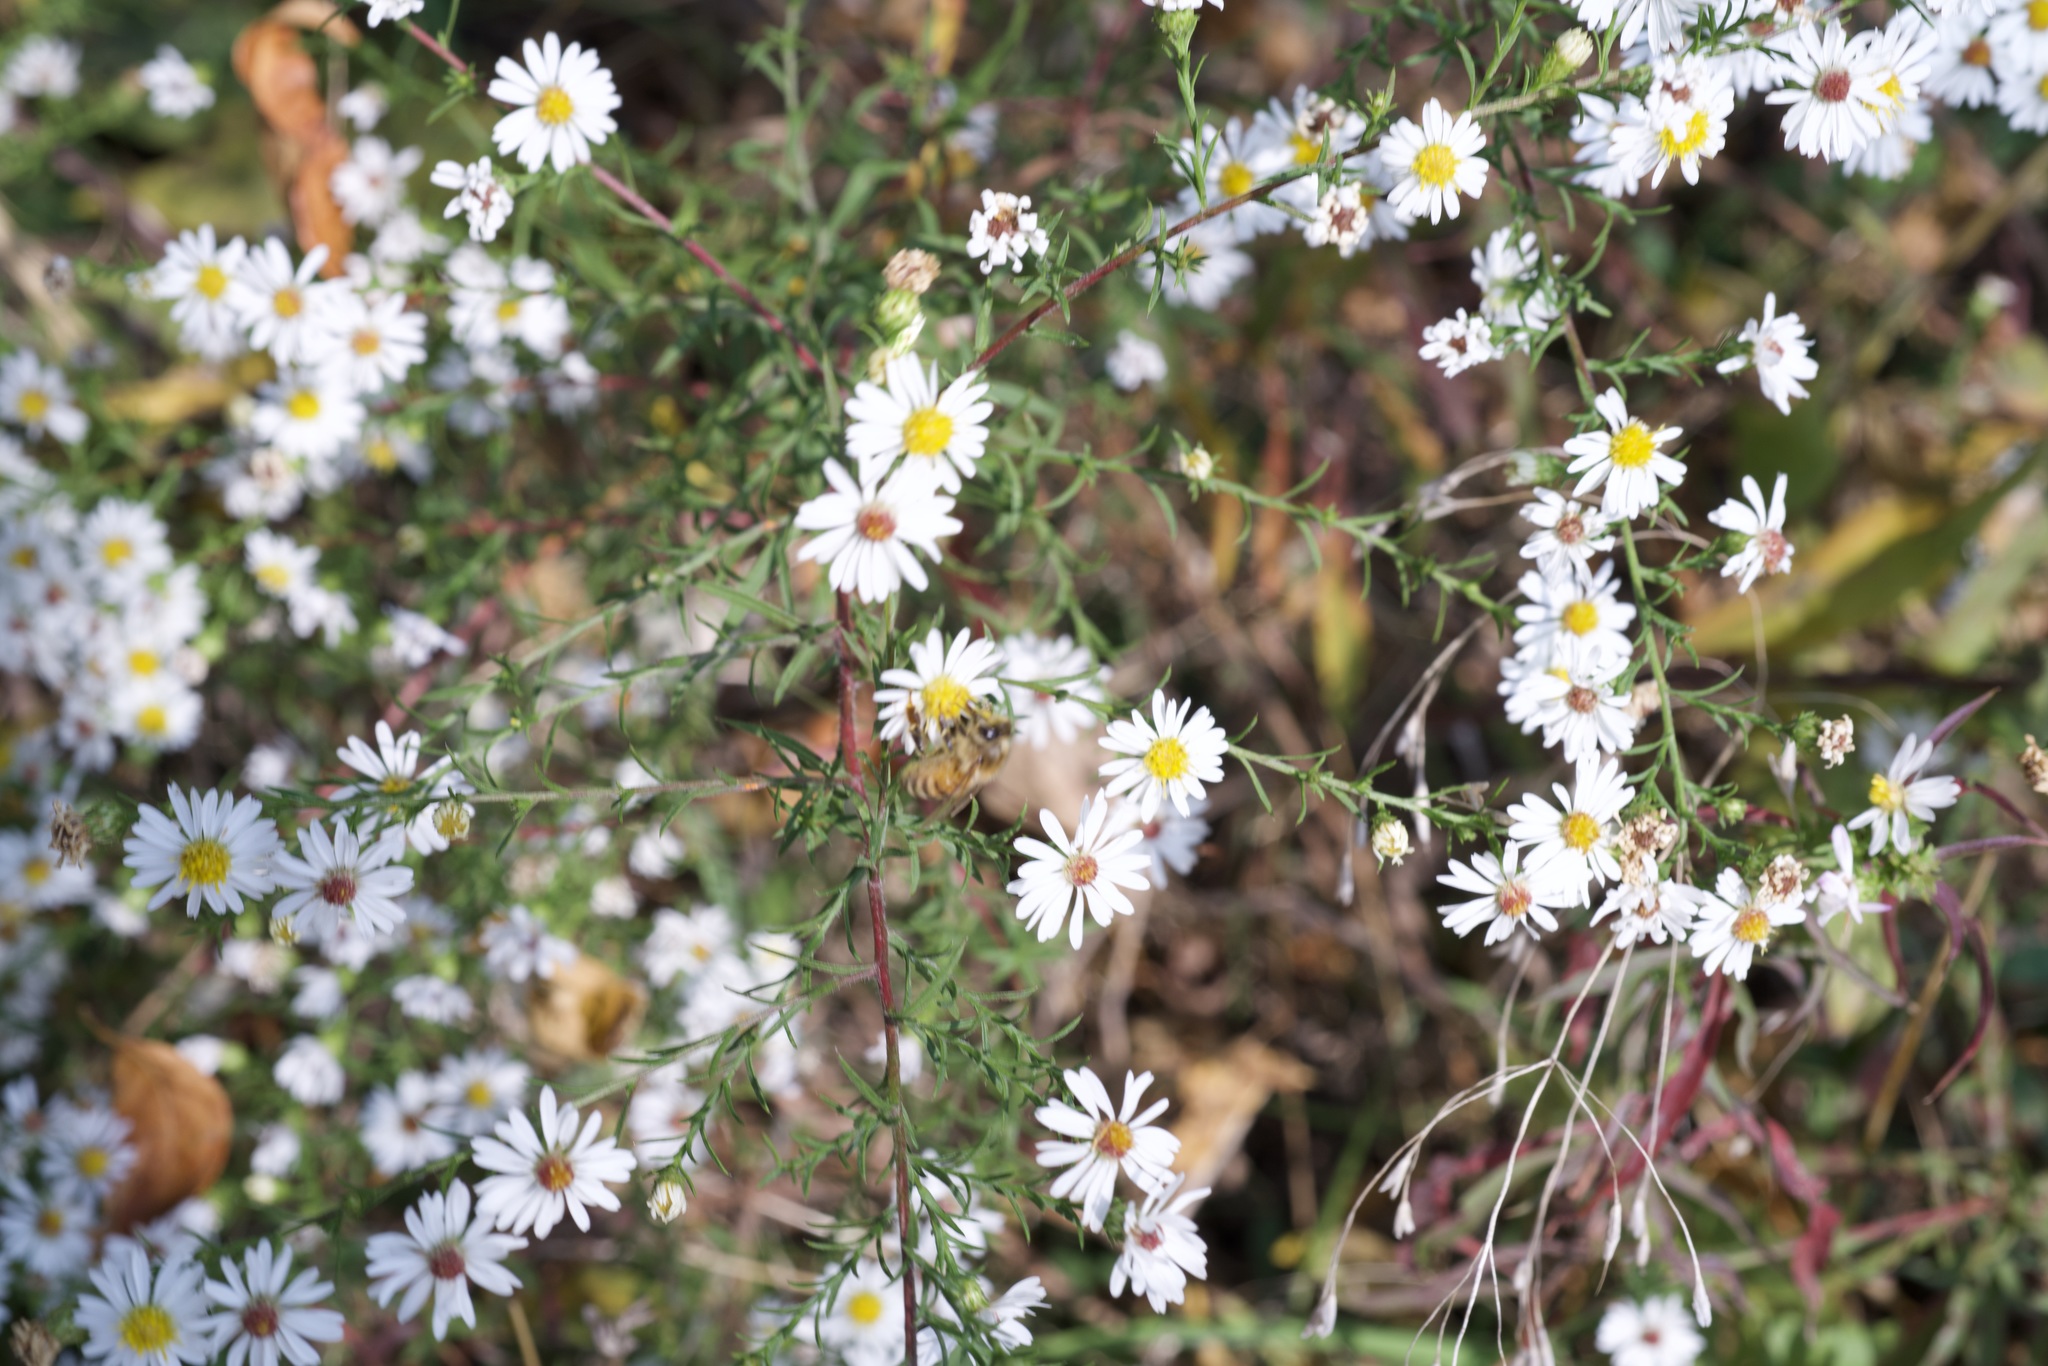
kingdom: Animalia
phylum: Arthropoda
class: Insecta
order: Hymenoptera
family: Apidae
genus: Apis
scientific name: Apis mellifera
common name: Honey bee
